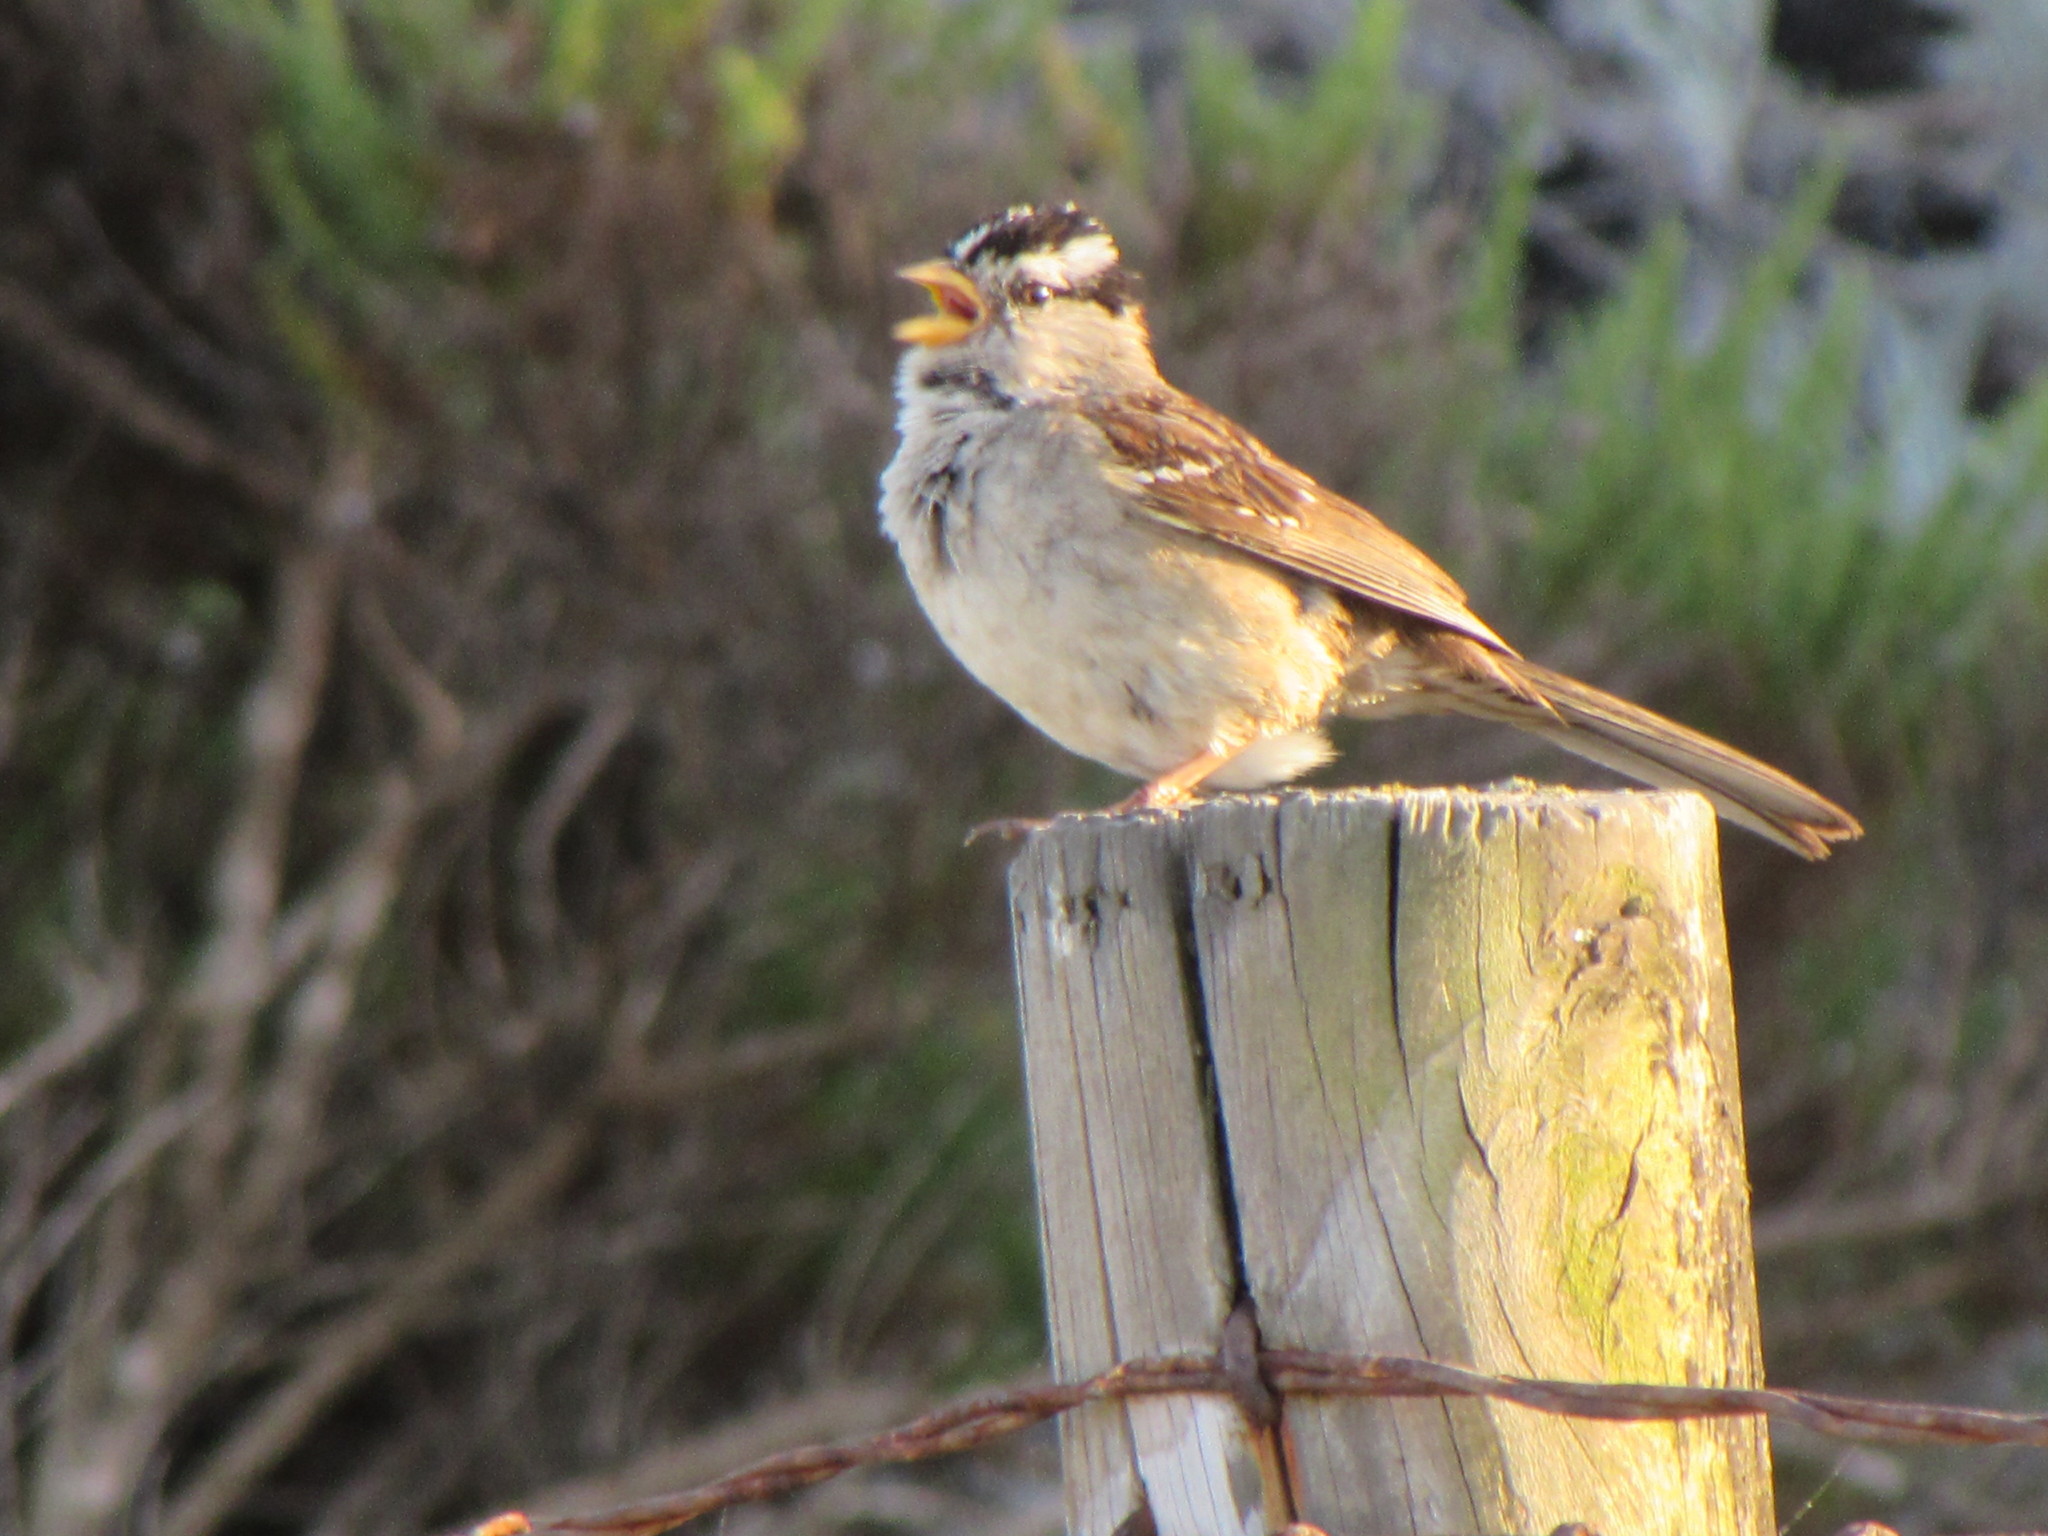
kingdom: Animalia
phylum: Chordata
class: Aves
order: Passeriformes
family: Passerellidae
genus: Zonotrichia
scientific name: Zonotrichia leucophrys
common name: White-crowned sparrow
